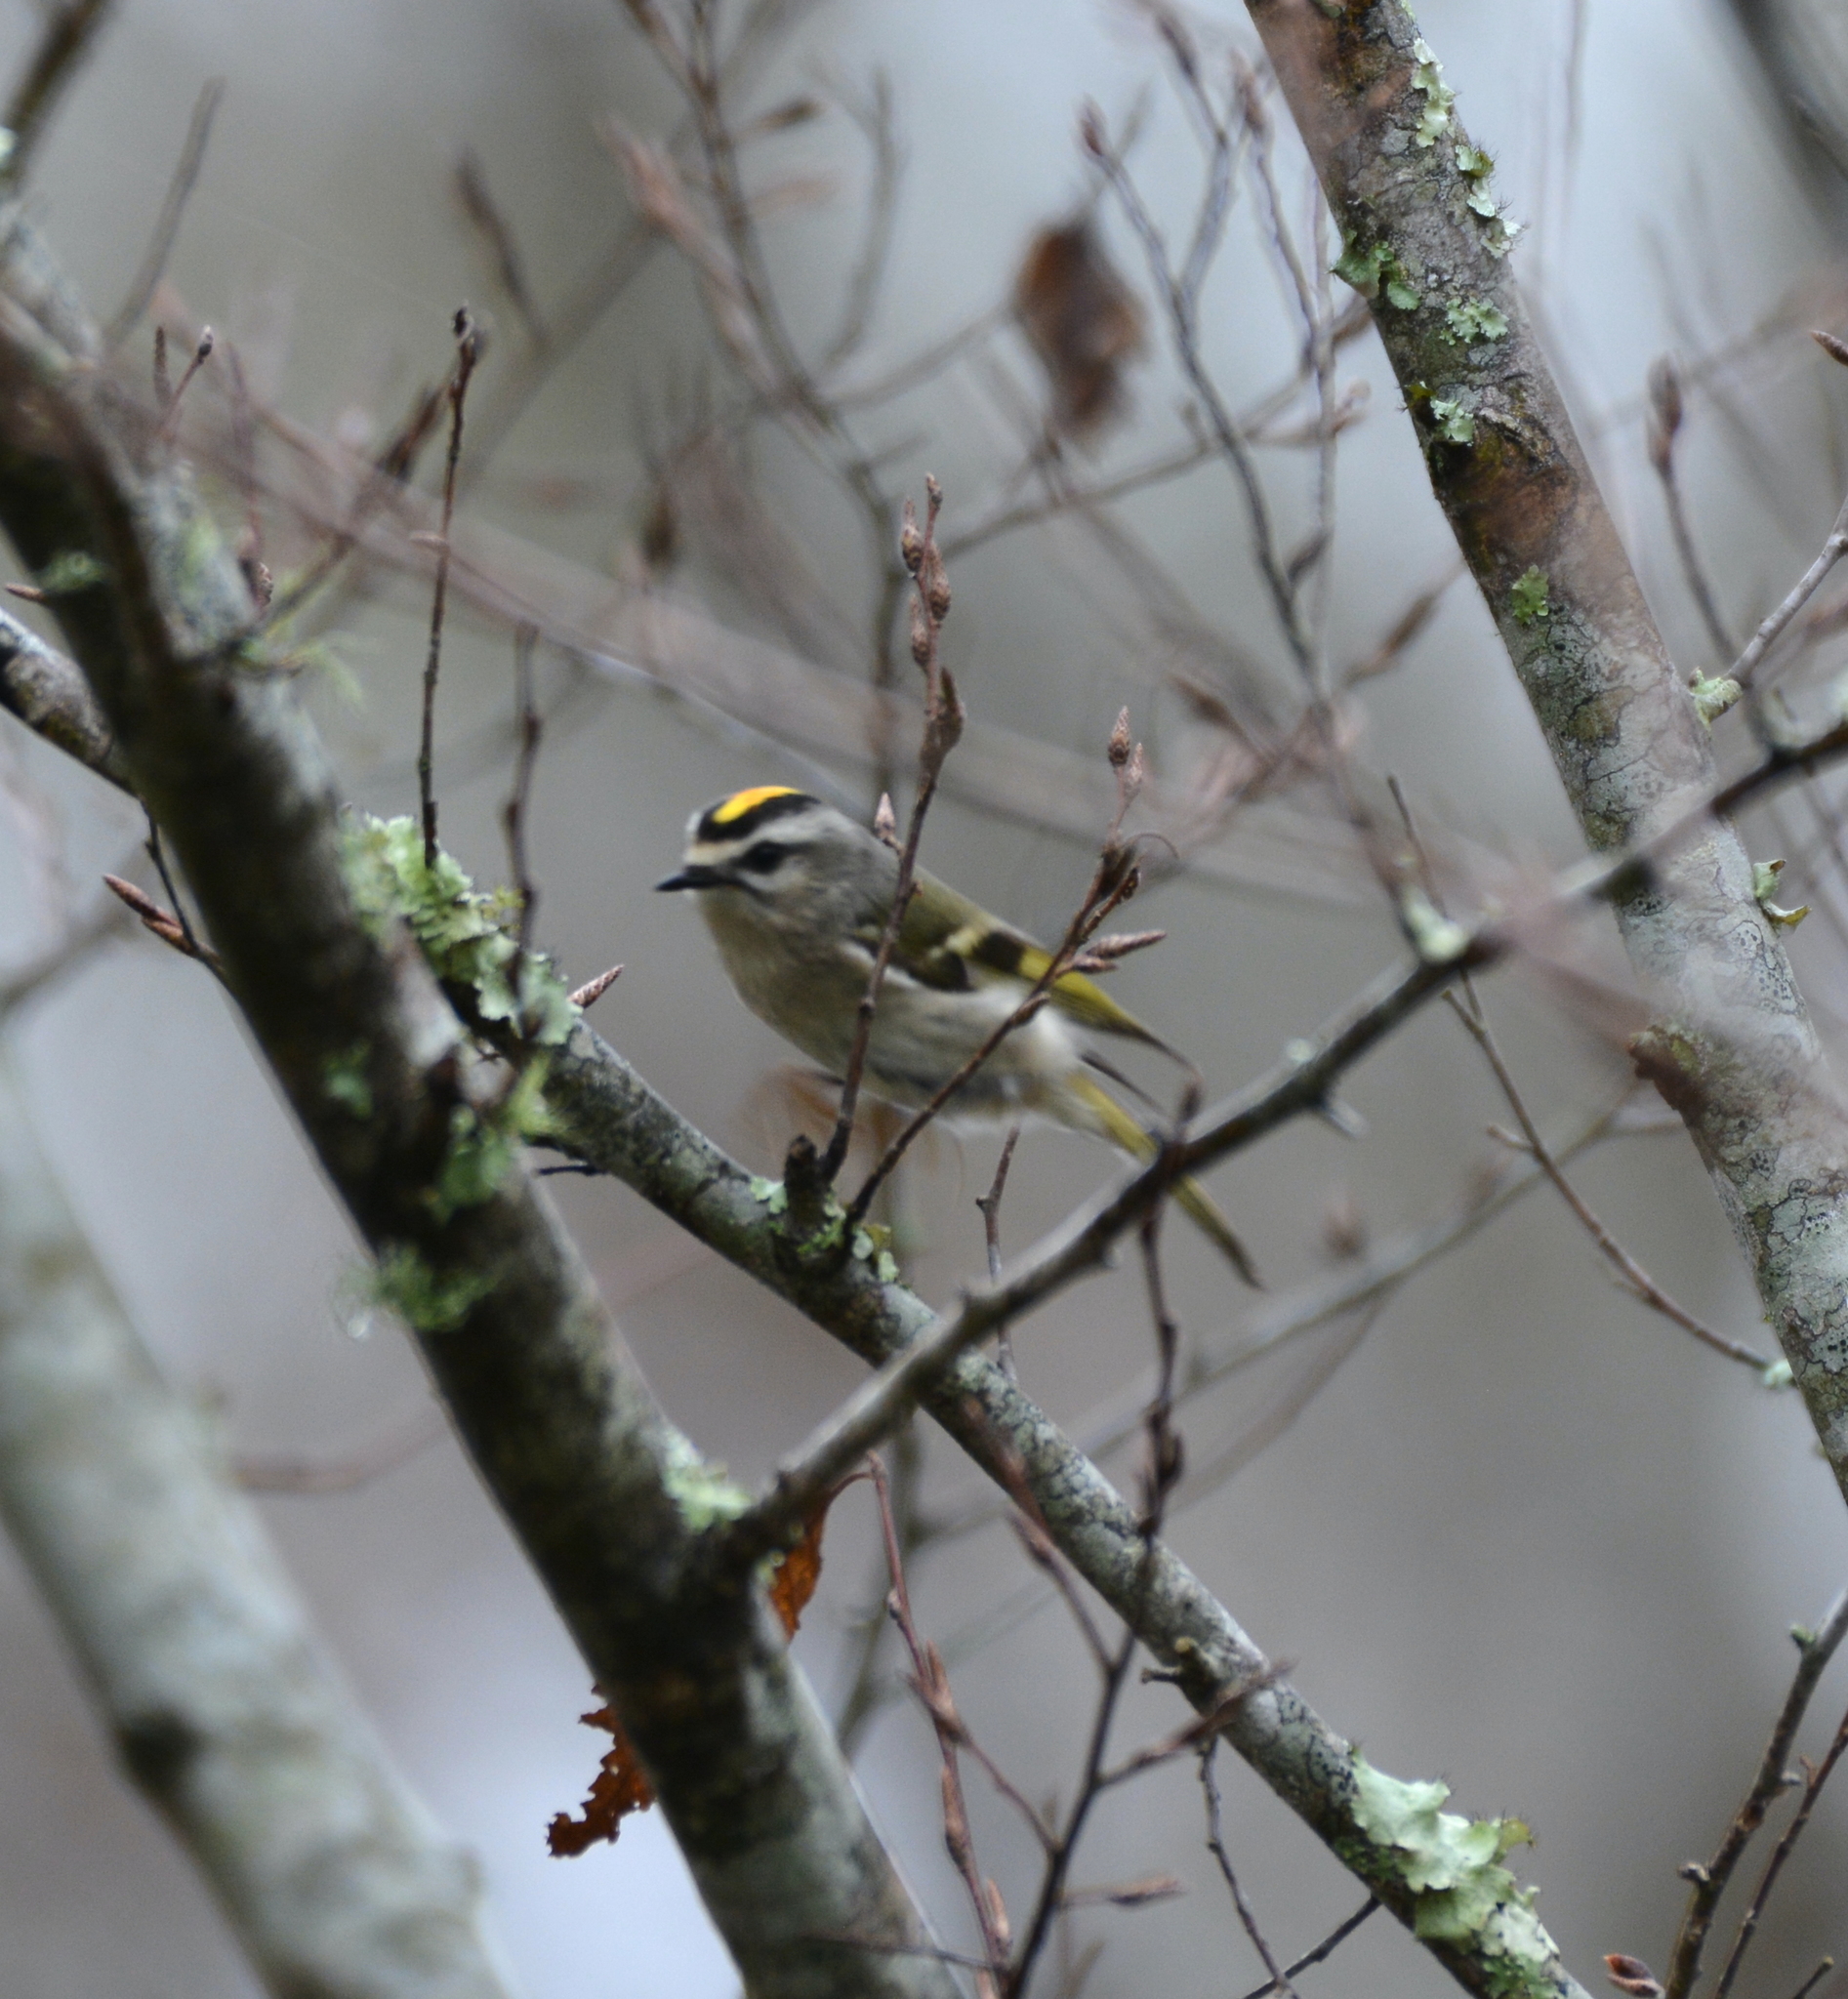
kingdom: Animalia
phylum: Chordata
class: Aves
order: Passeriformes
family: Regulidae
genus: Regulus
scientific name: Regulus satrapa
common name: Golden-crowned kinglet
